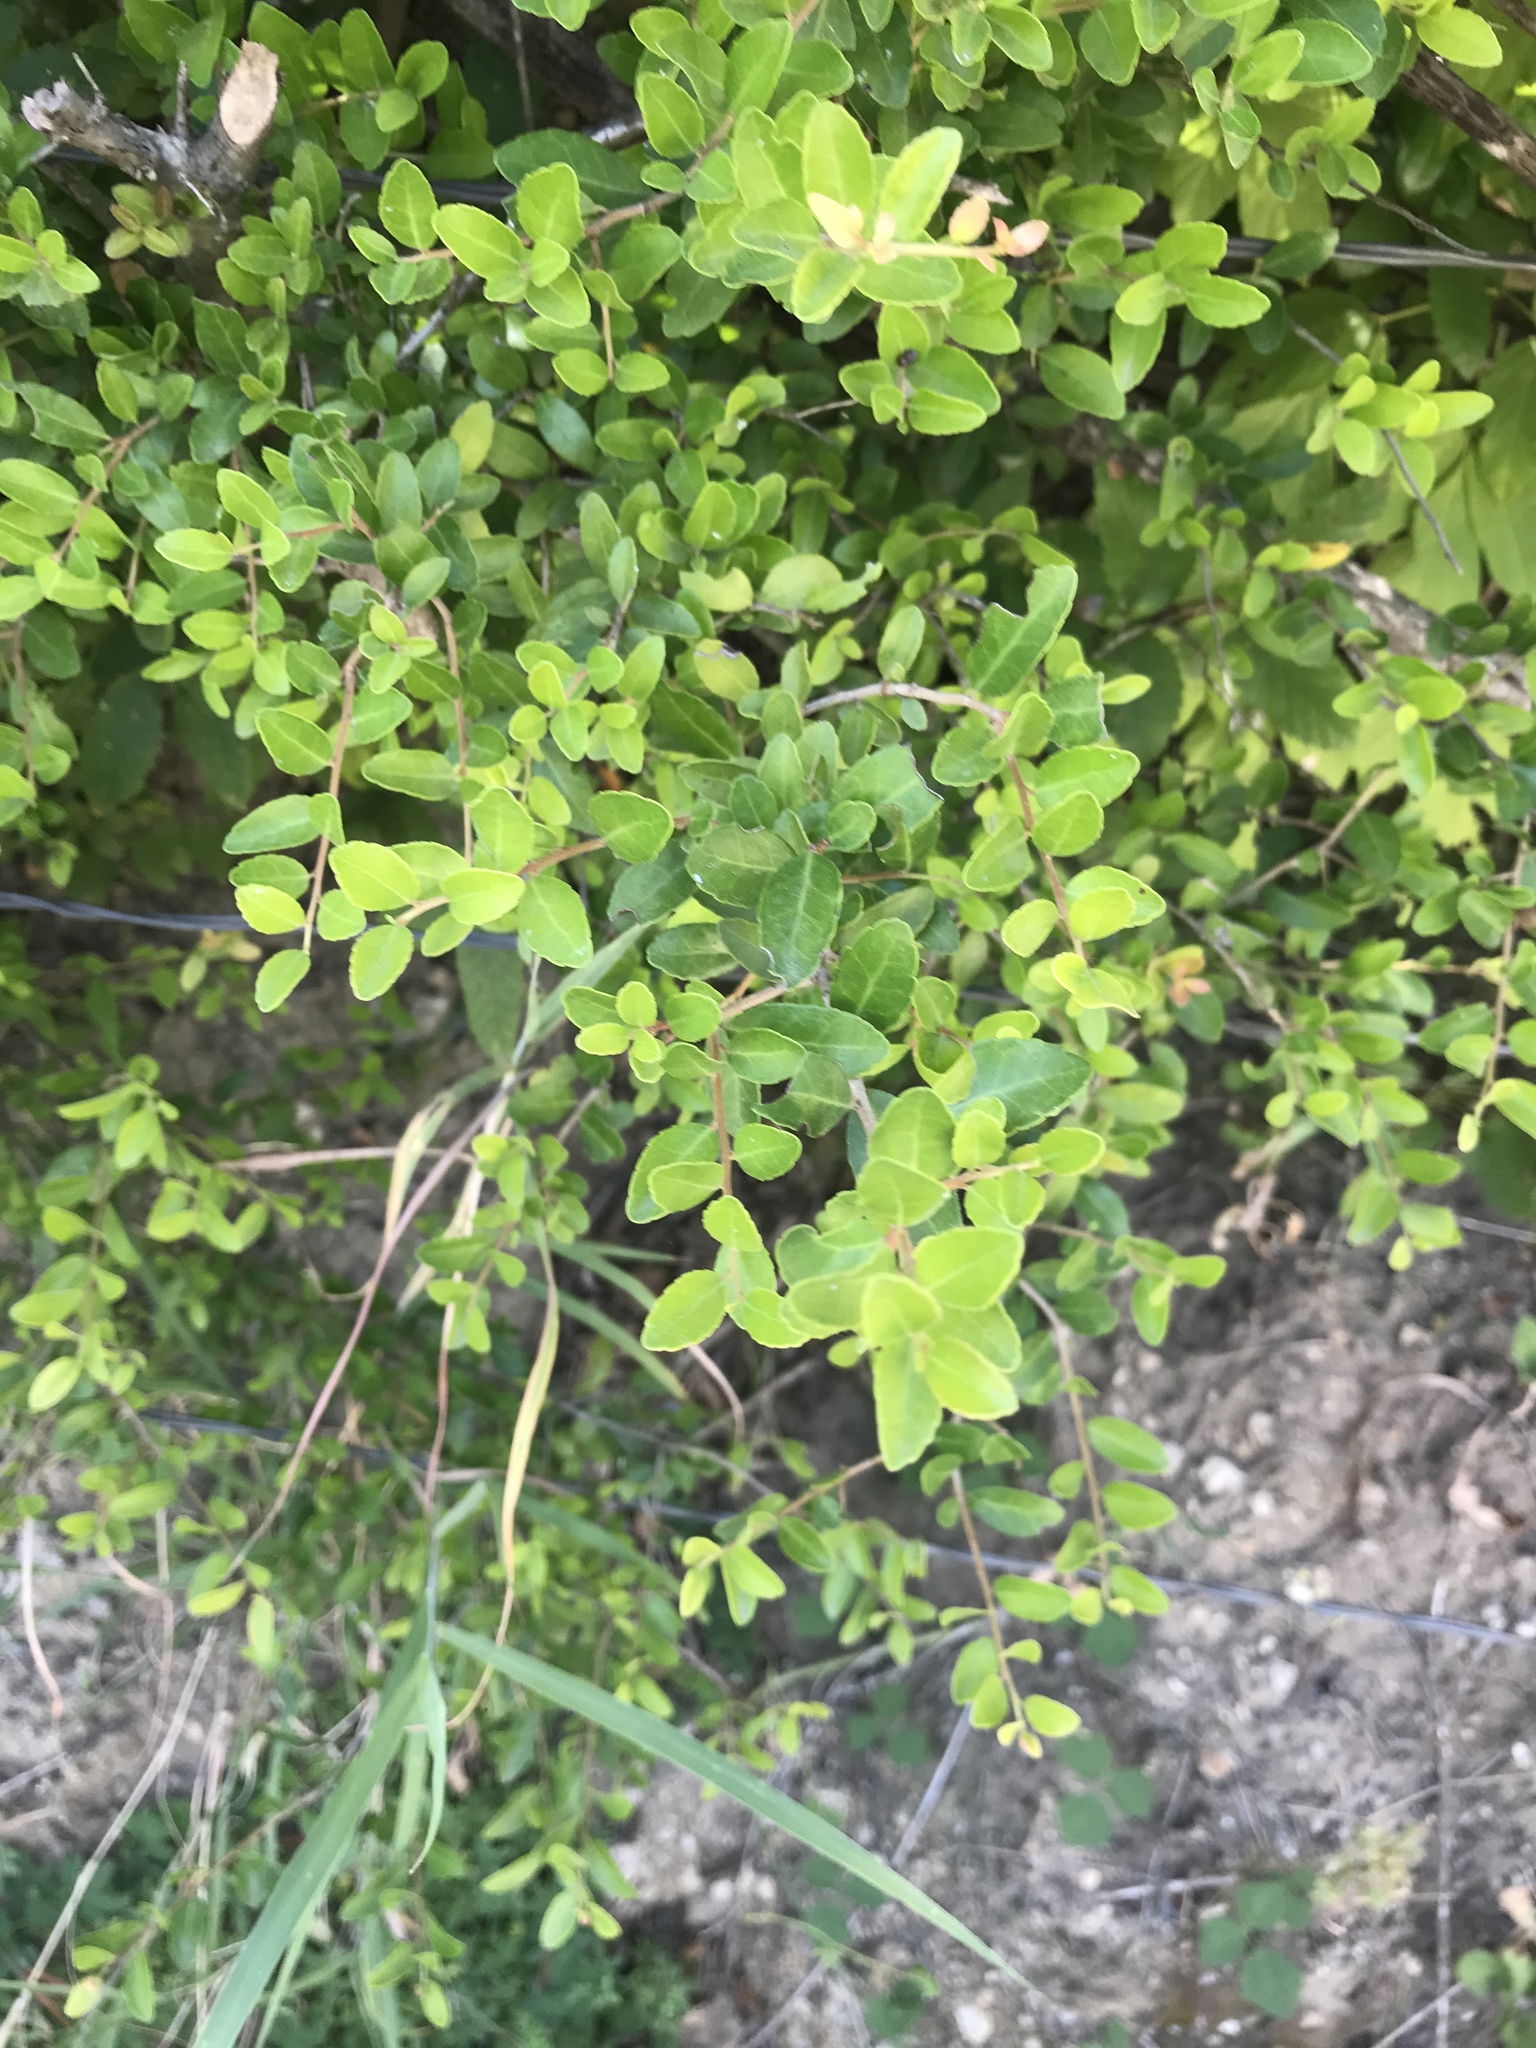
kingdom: Plantae
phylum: Tracheophyta
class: Magnoliopsida
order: Aquifoliales
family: Aquifoliaceae
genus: Ilex
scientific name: Ilex vomitoria
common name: Yaupon holly
